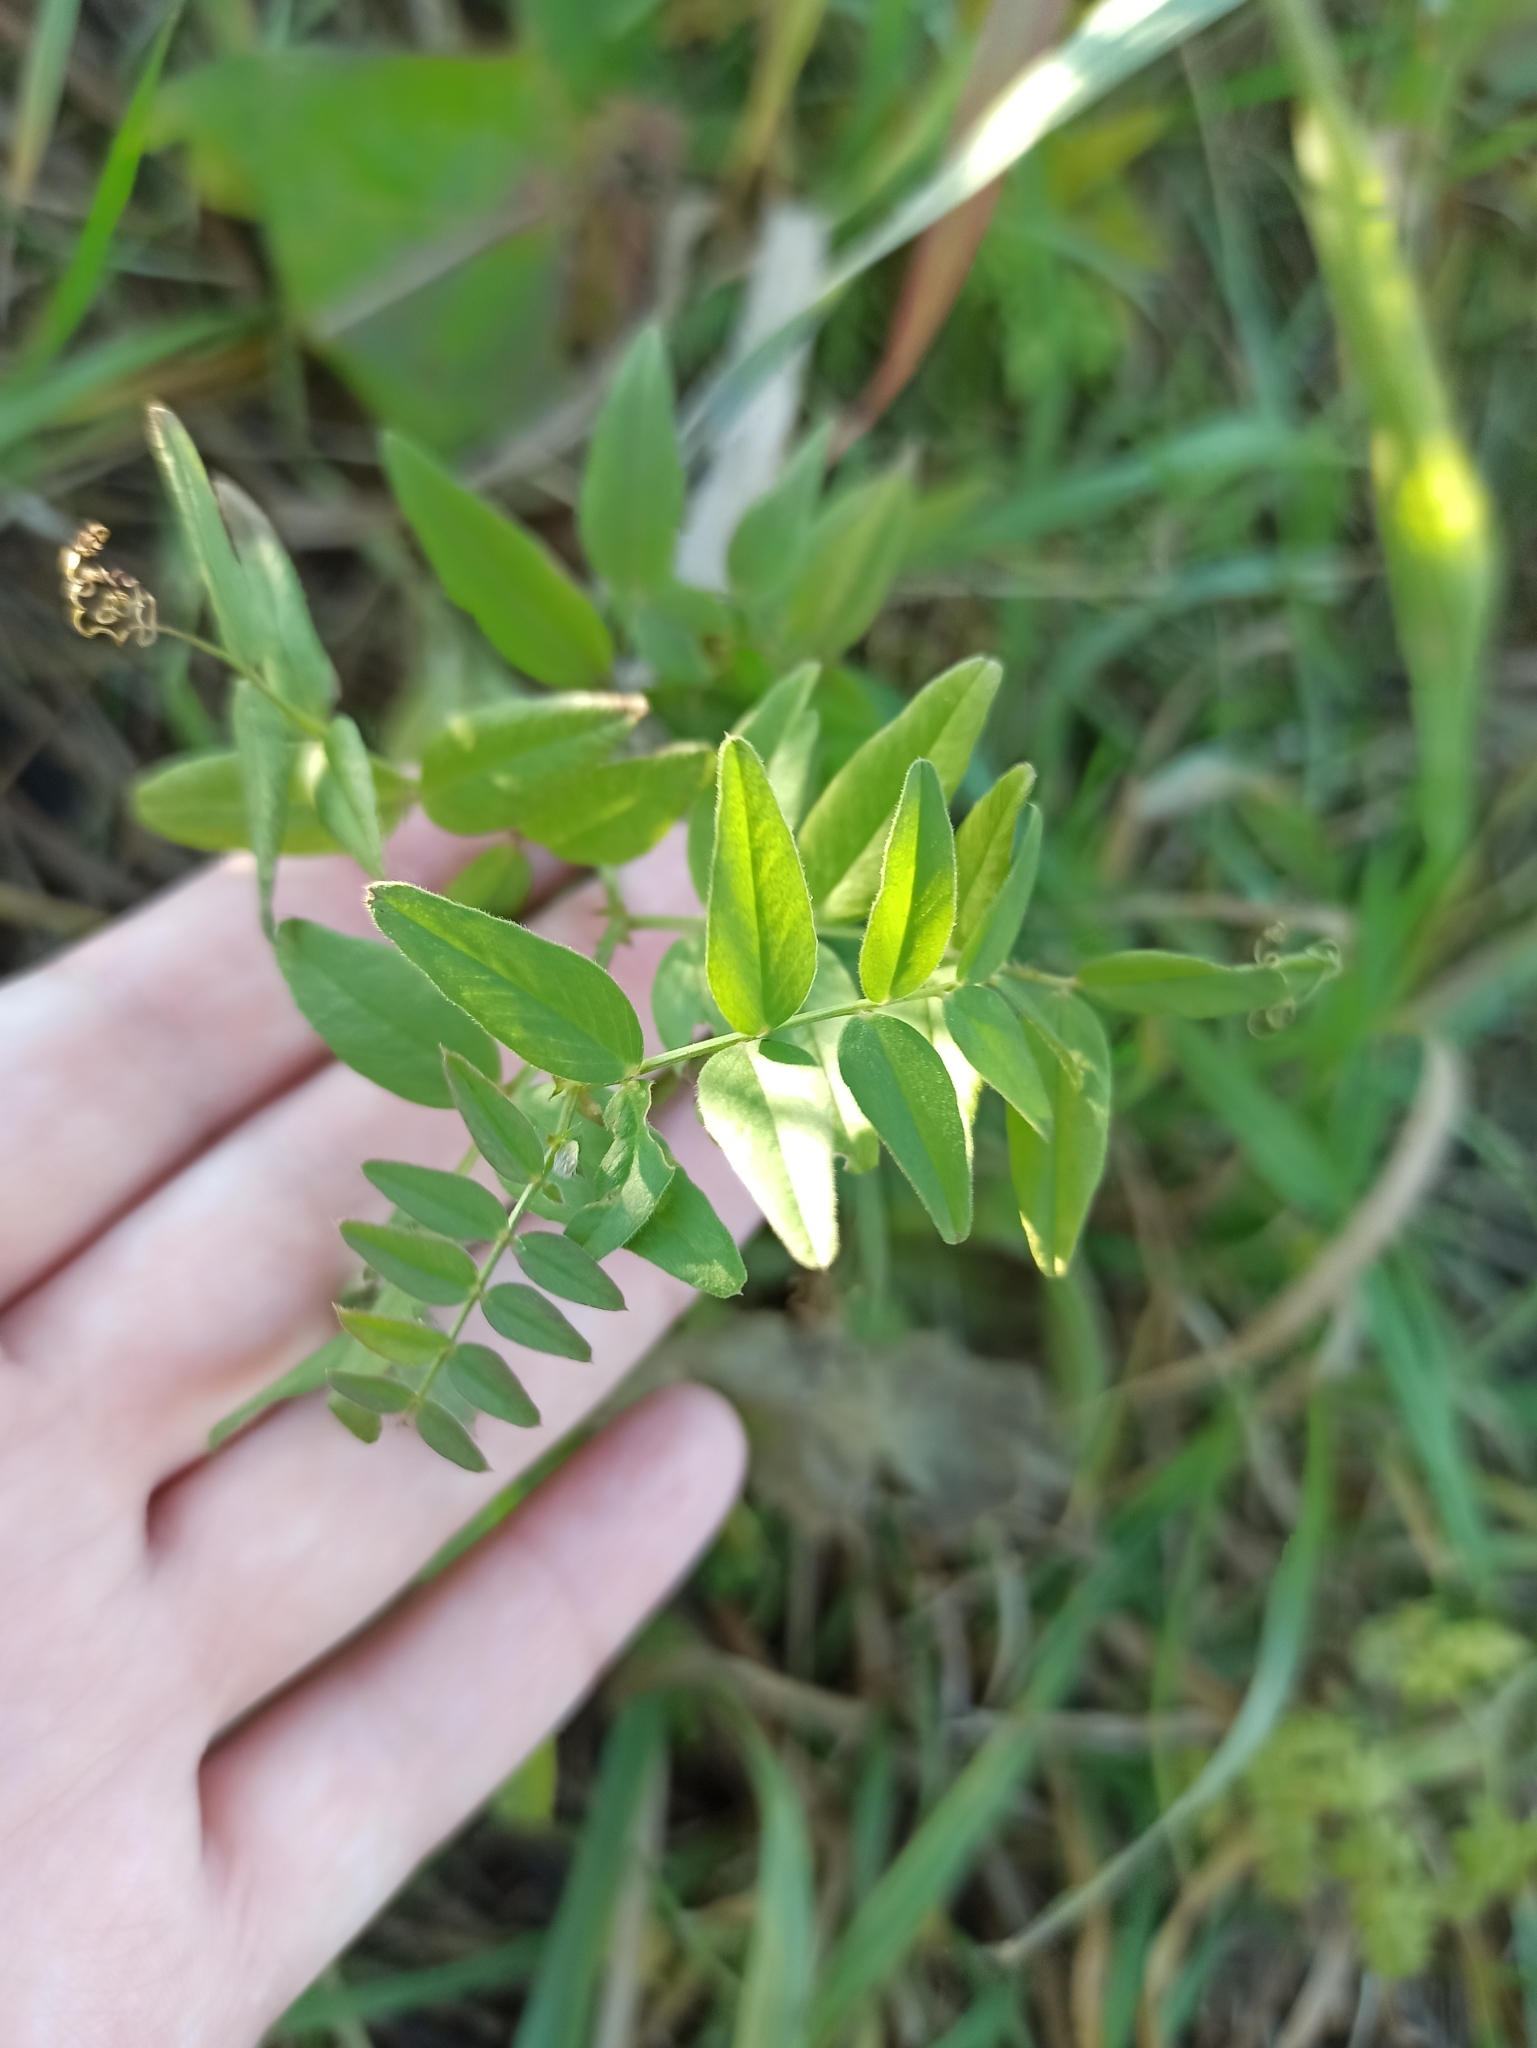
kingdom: Plantae
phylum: Tracheophyta
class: Magnoliopsida
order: Fabales
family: Fabaceae
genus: Vicia
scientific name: Vicia sepium
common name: Bush vetch
